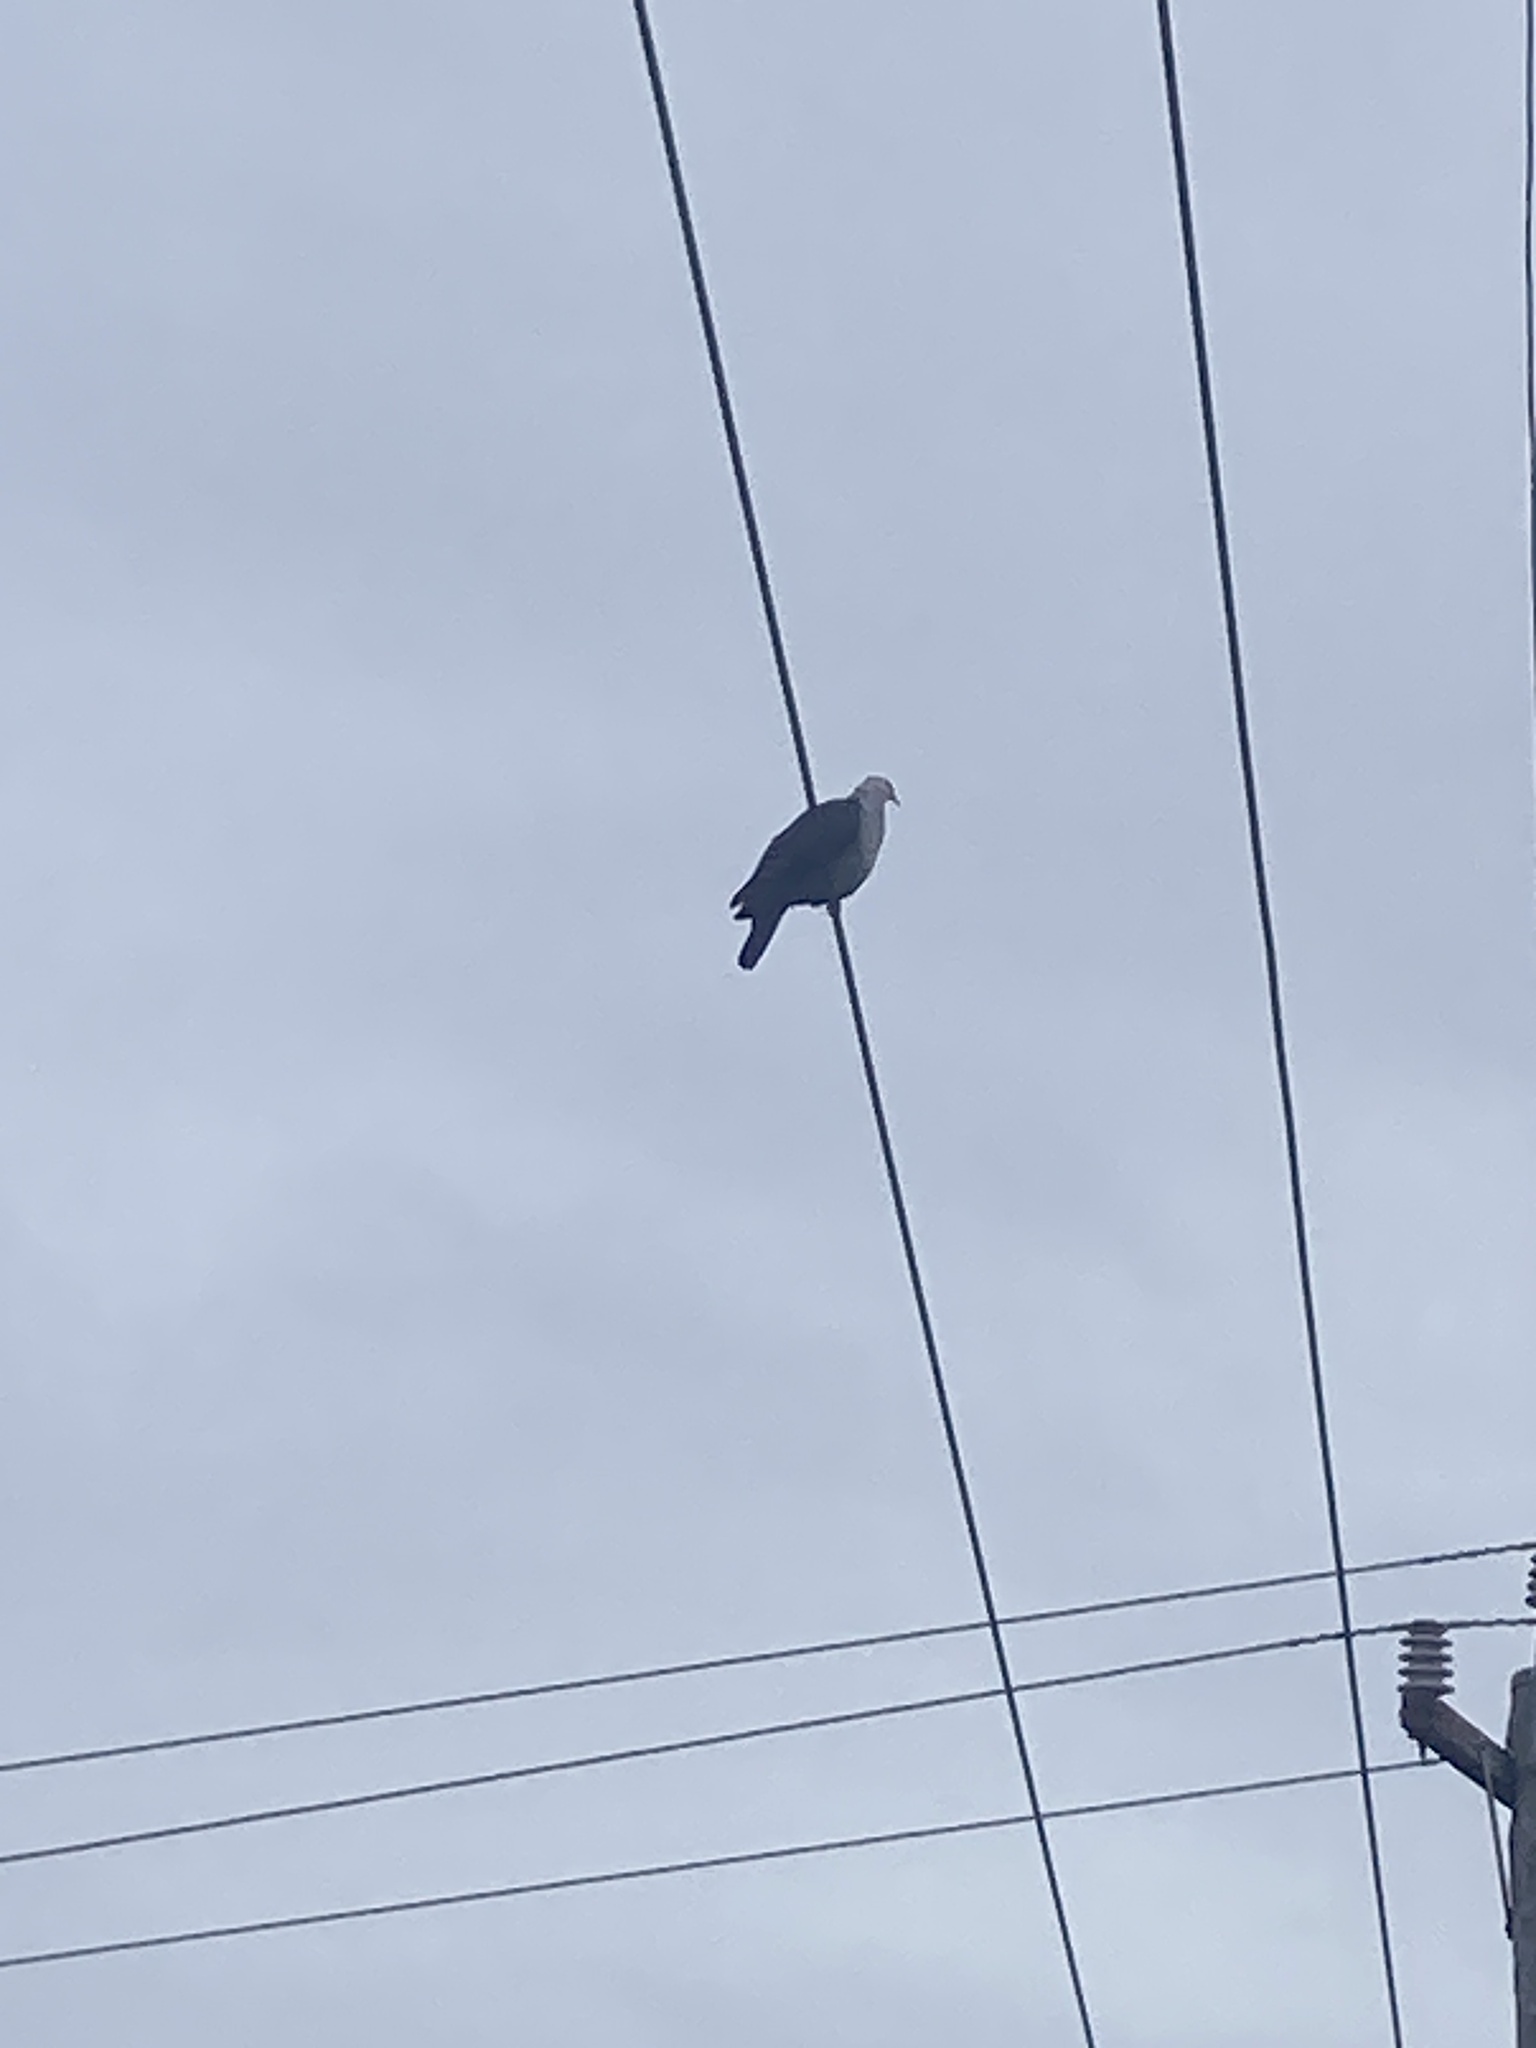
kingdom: Animalia
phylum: Chordata
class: Aves
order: Columbiformes
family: Columbidae
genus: Columba
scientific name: Columba leucomela
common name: White-headed pigeon
